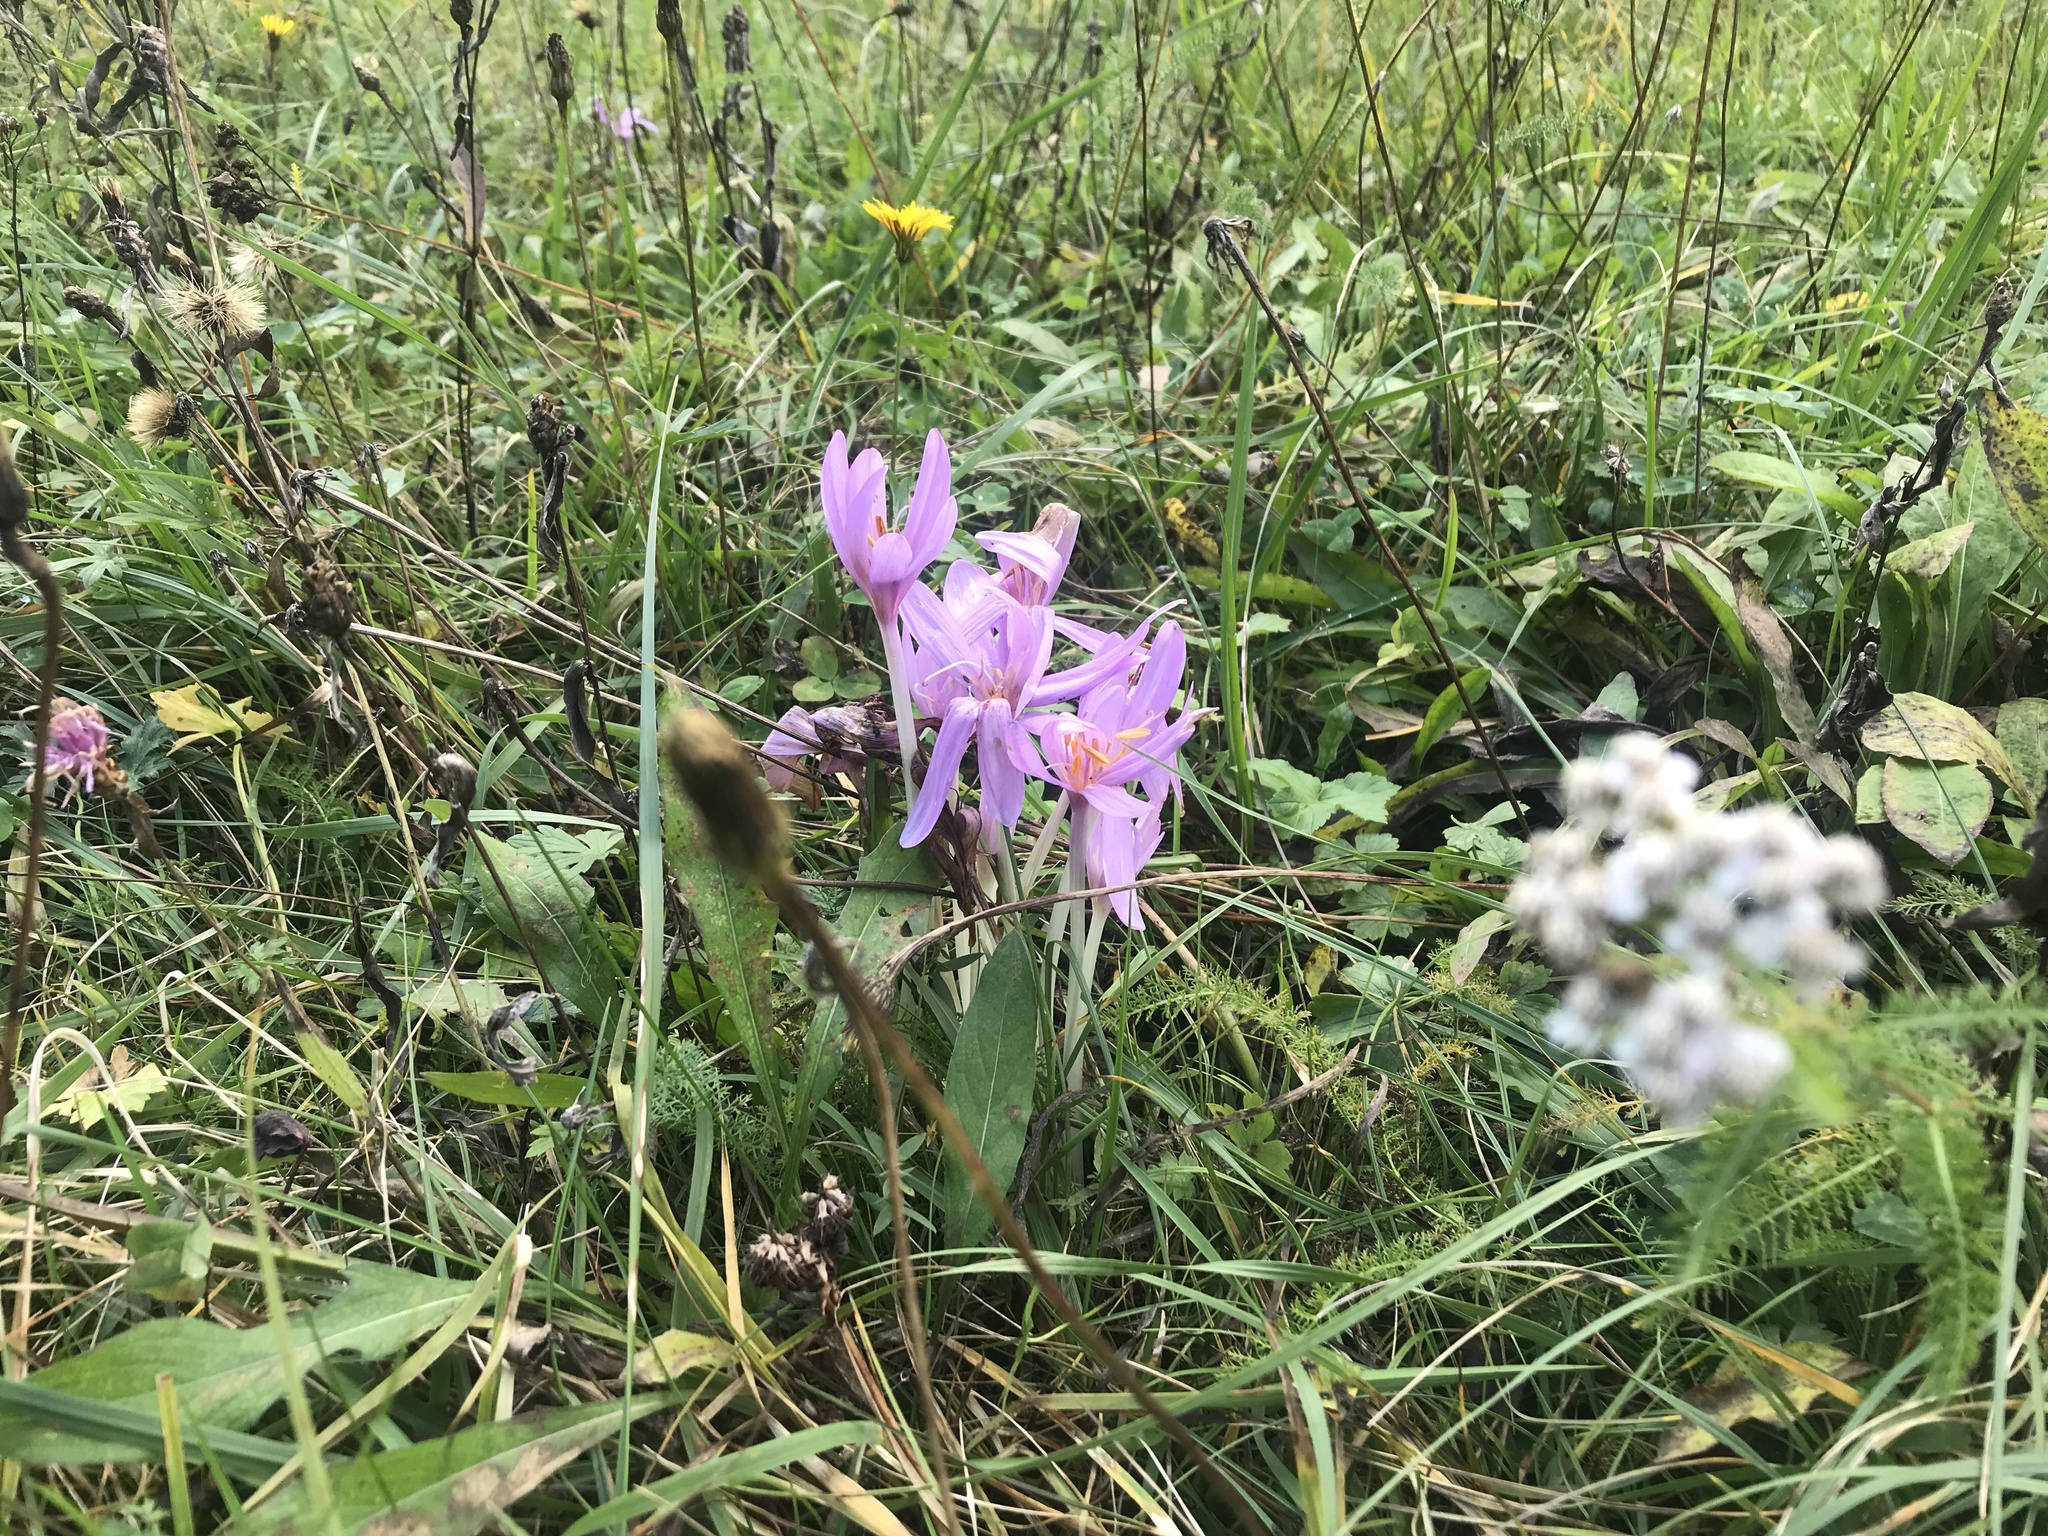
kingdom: Plantae
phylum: Tracheophyta
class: Liliopsida
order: Liliales
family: Colchicaceae
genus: Colchicum
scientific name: Colchicum autumnale
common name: Autumn crocus
